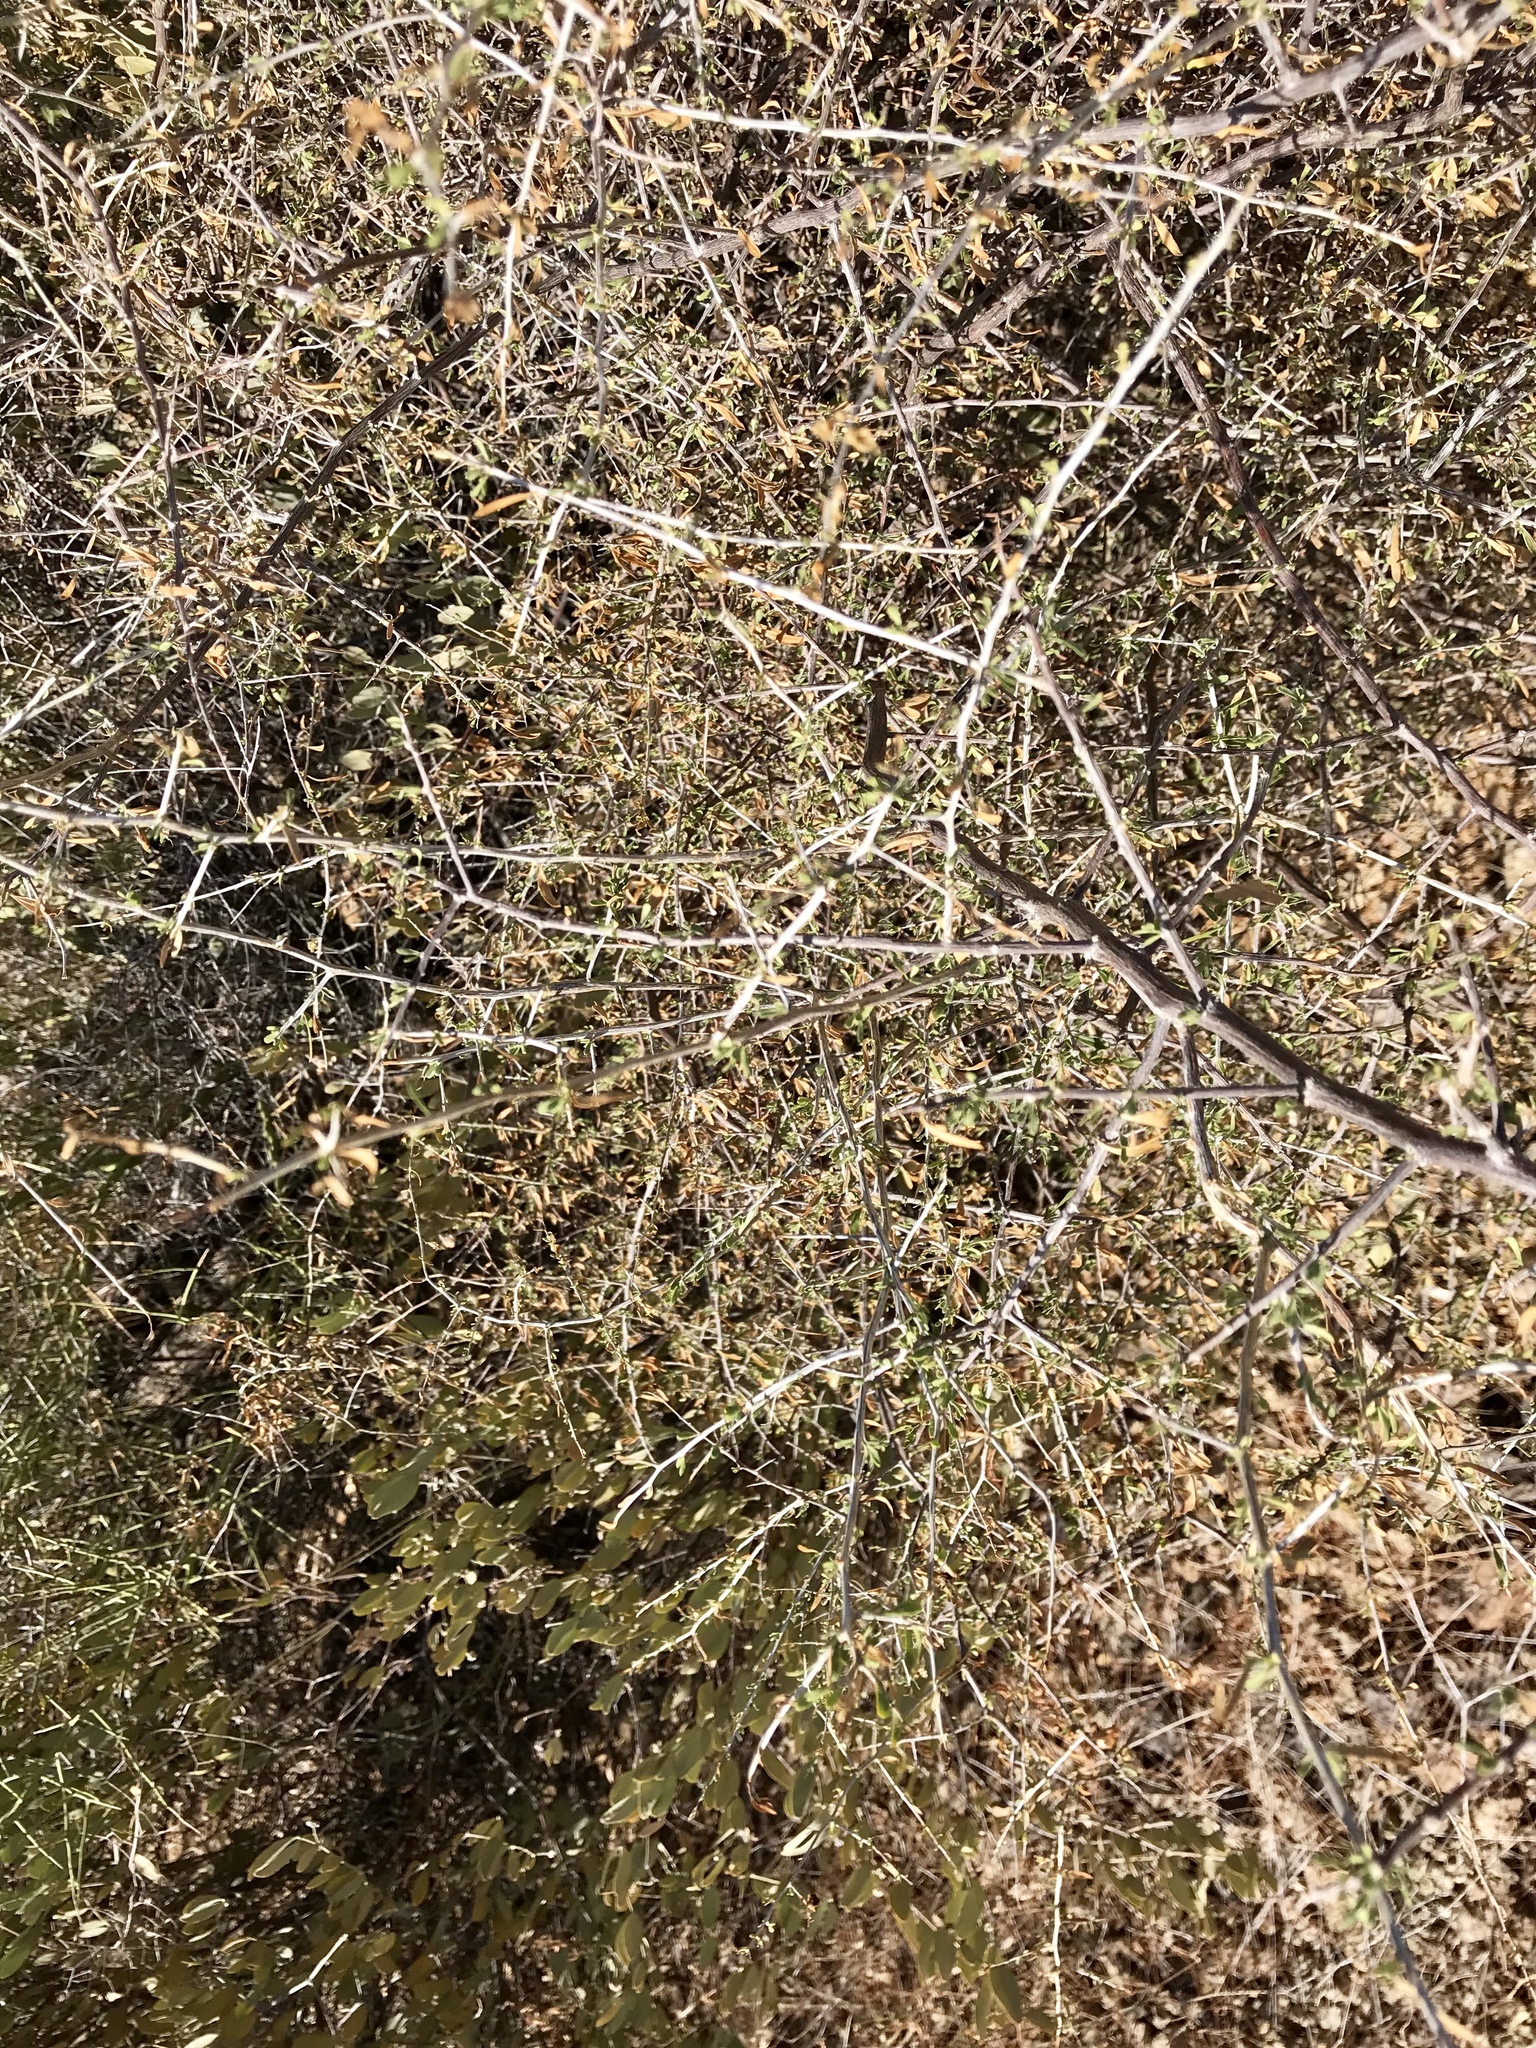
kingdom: Plantae
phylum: Tracheophyta
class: Magnoliopsida
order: Fabales
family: Fabaceae
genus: Vachellia
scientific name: Vachellia constricta
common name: Mescat acacia
